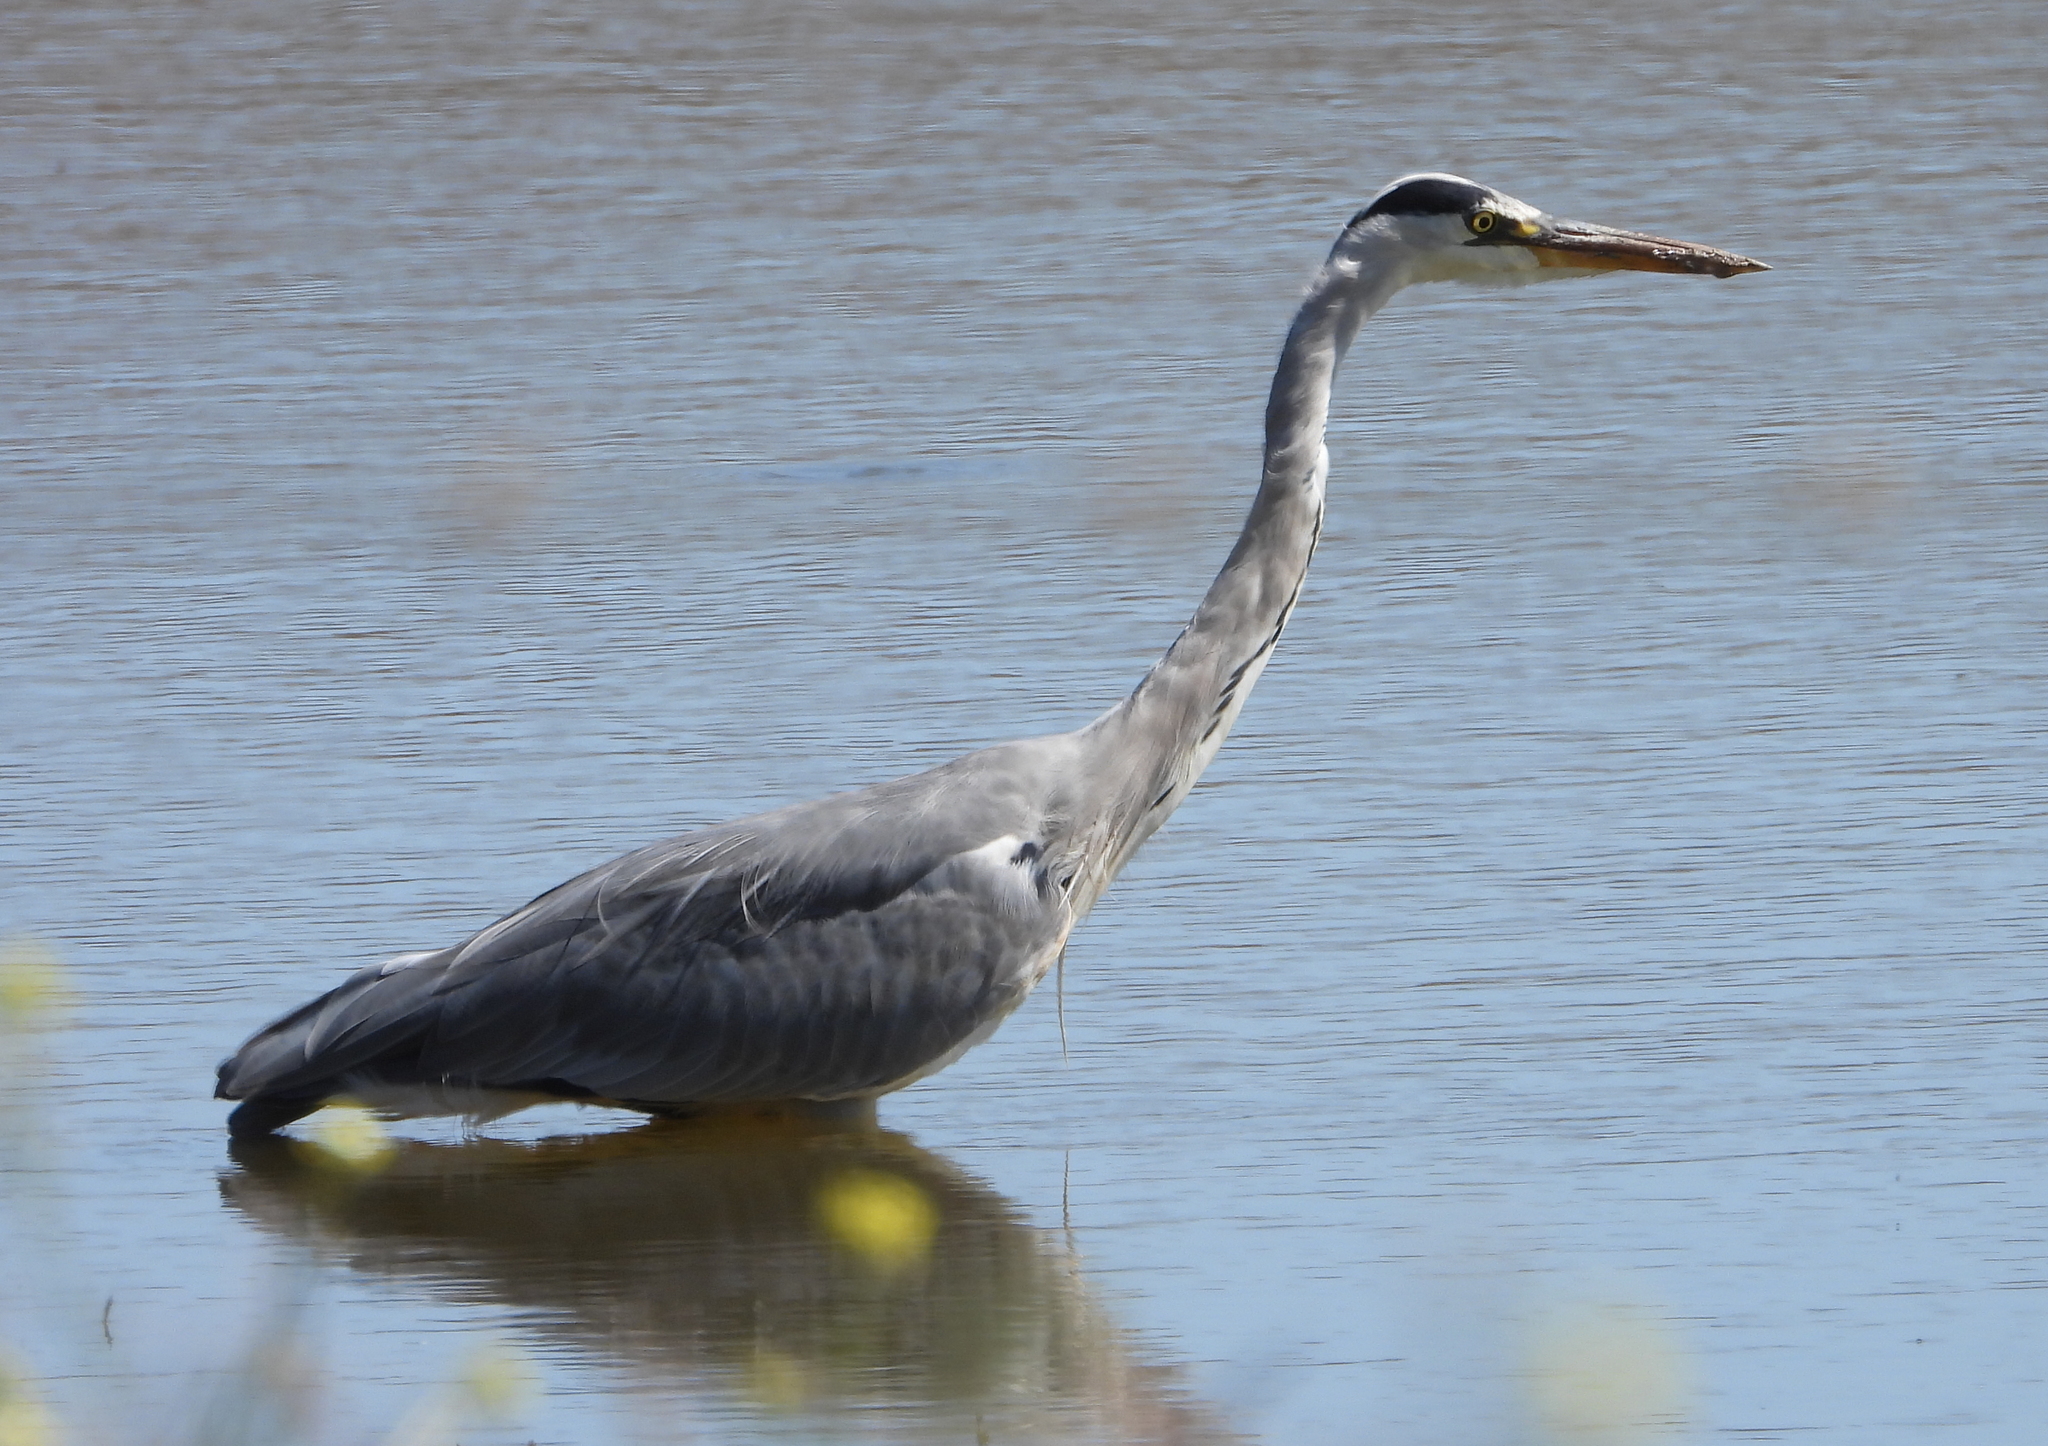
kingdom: Animalia
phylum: Chordata
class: Aves
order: Pelecaniformes
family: Ardeidae
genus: Ardea
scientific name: Ardea cinerea
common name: Grey heron
